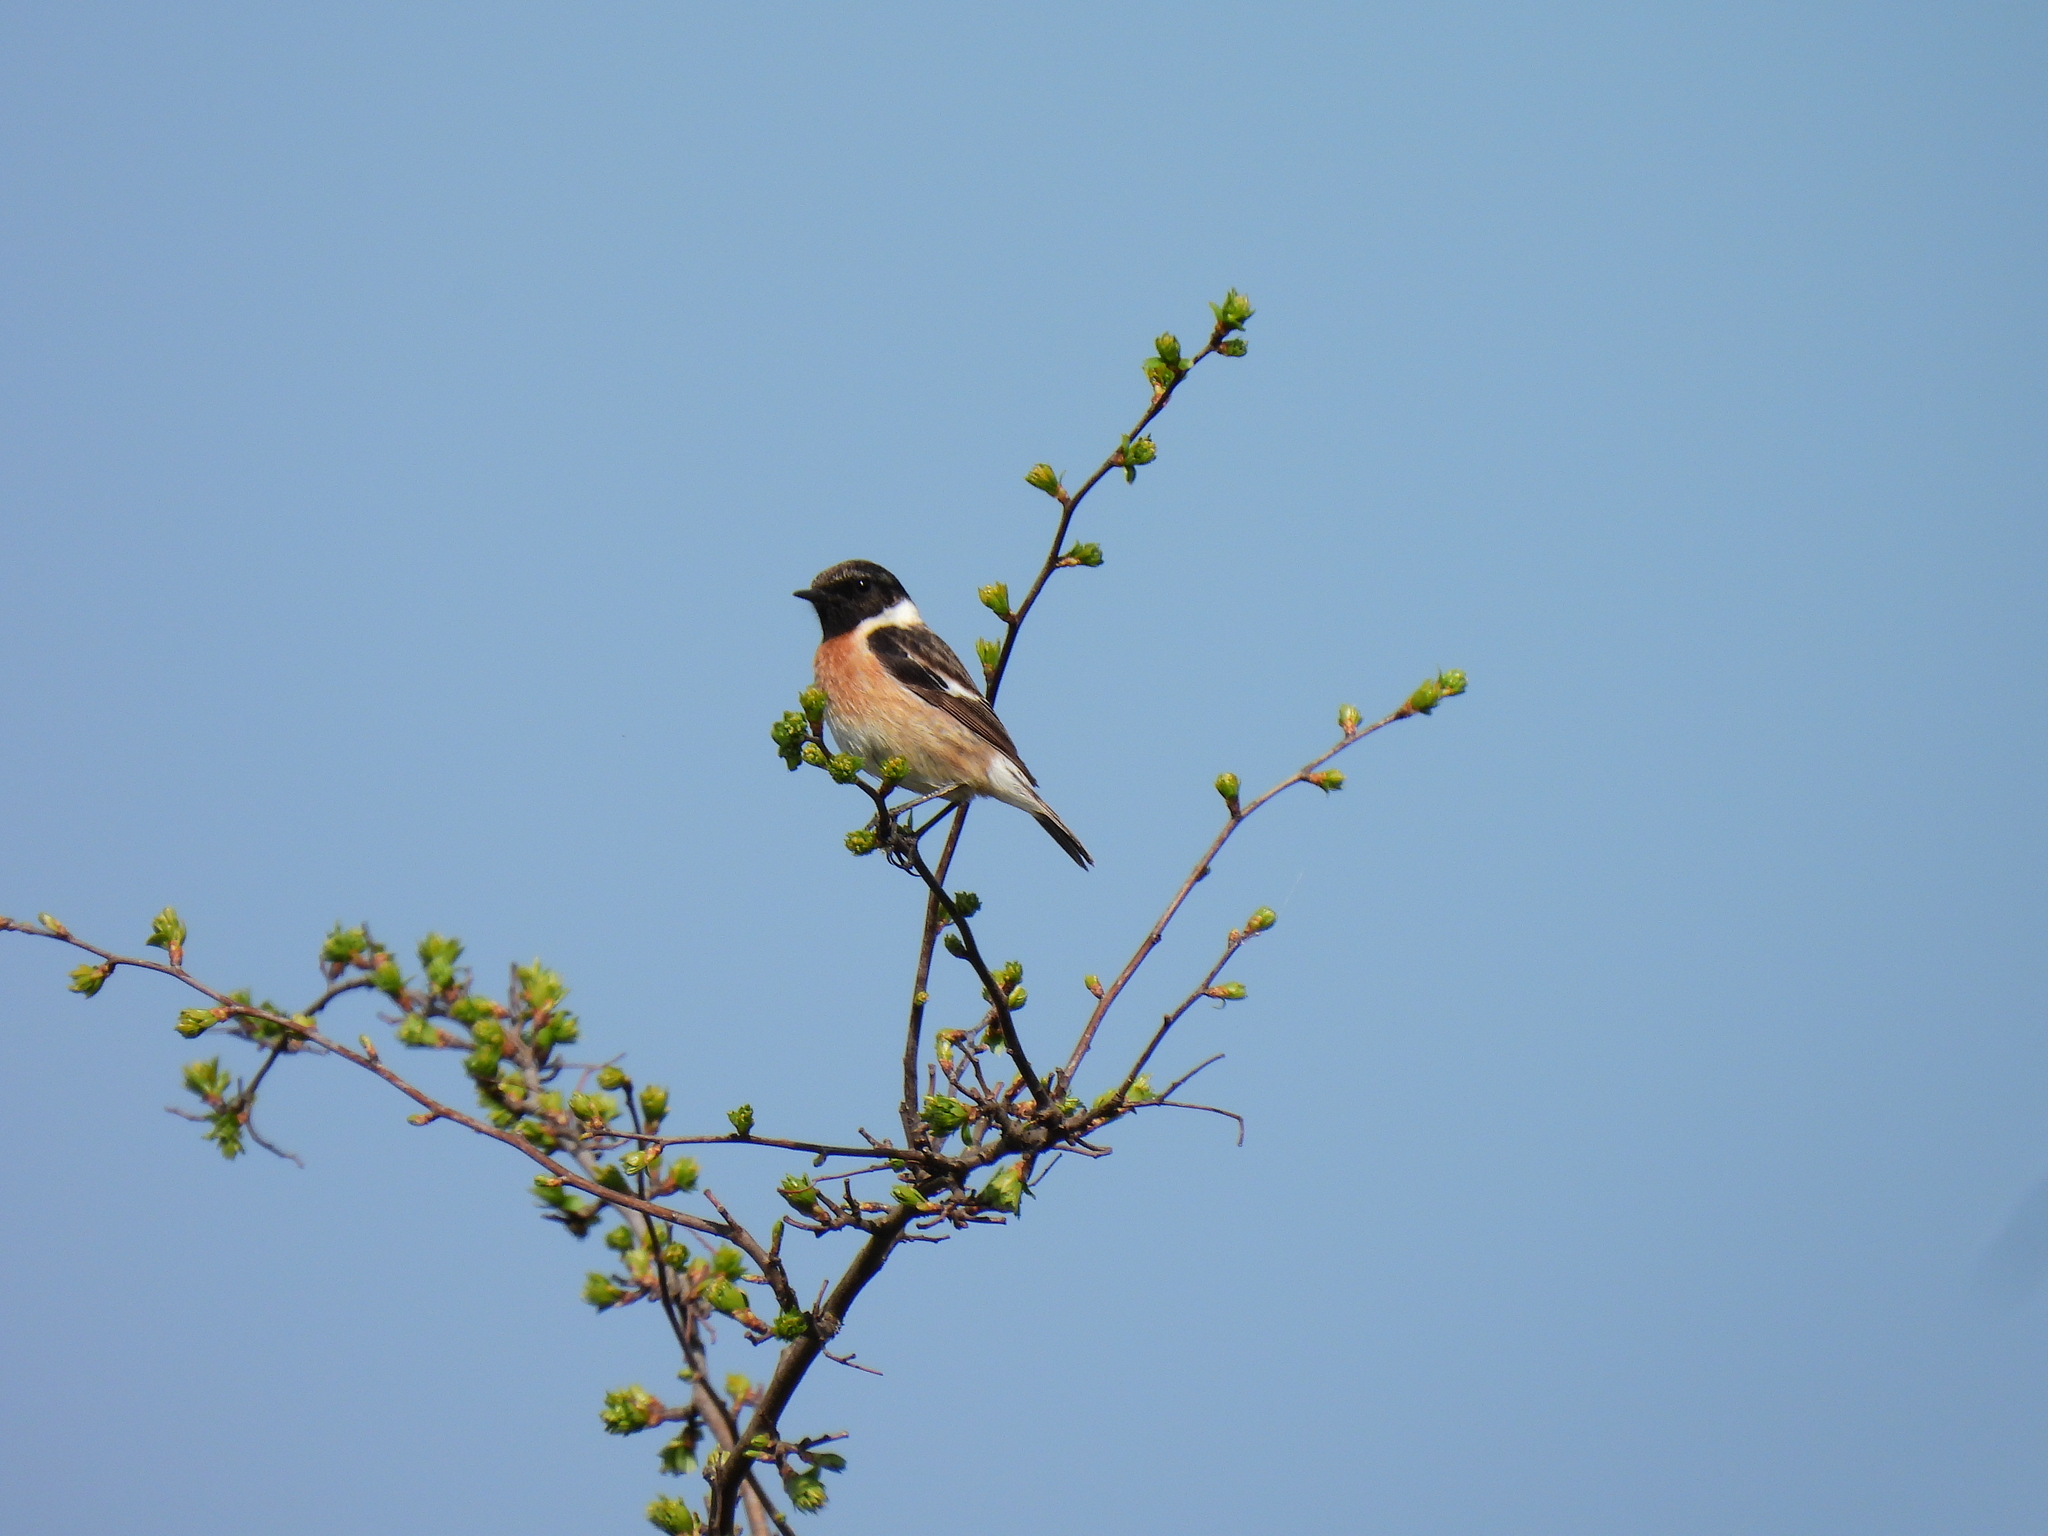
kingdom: Animalia
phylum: Chordata
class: Aves
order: Passeriformes
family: Muscicapidae
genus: Saxicola
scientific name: Saxicola rubicola
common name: European stonechat
